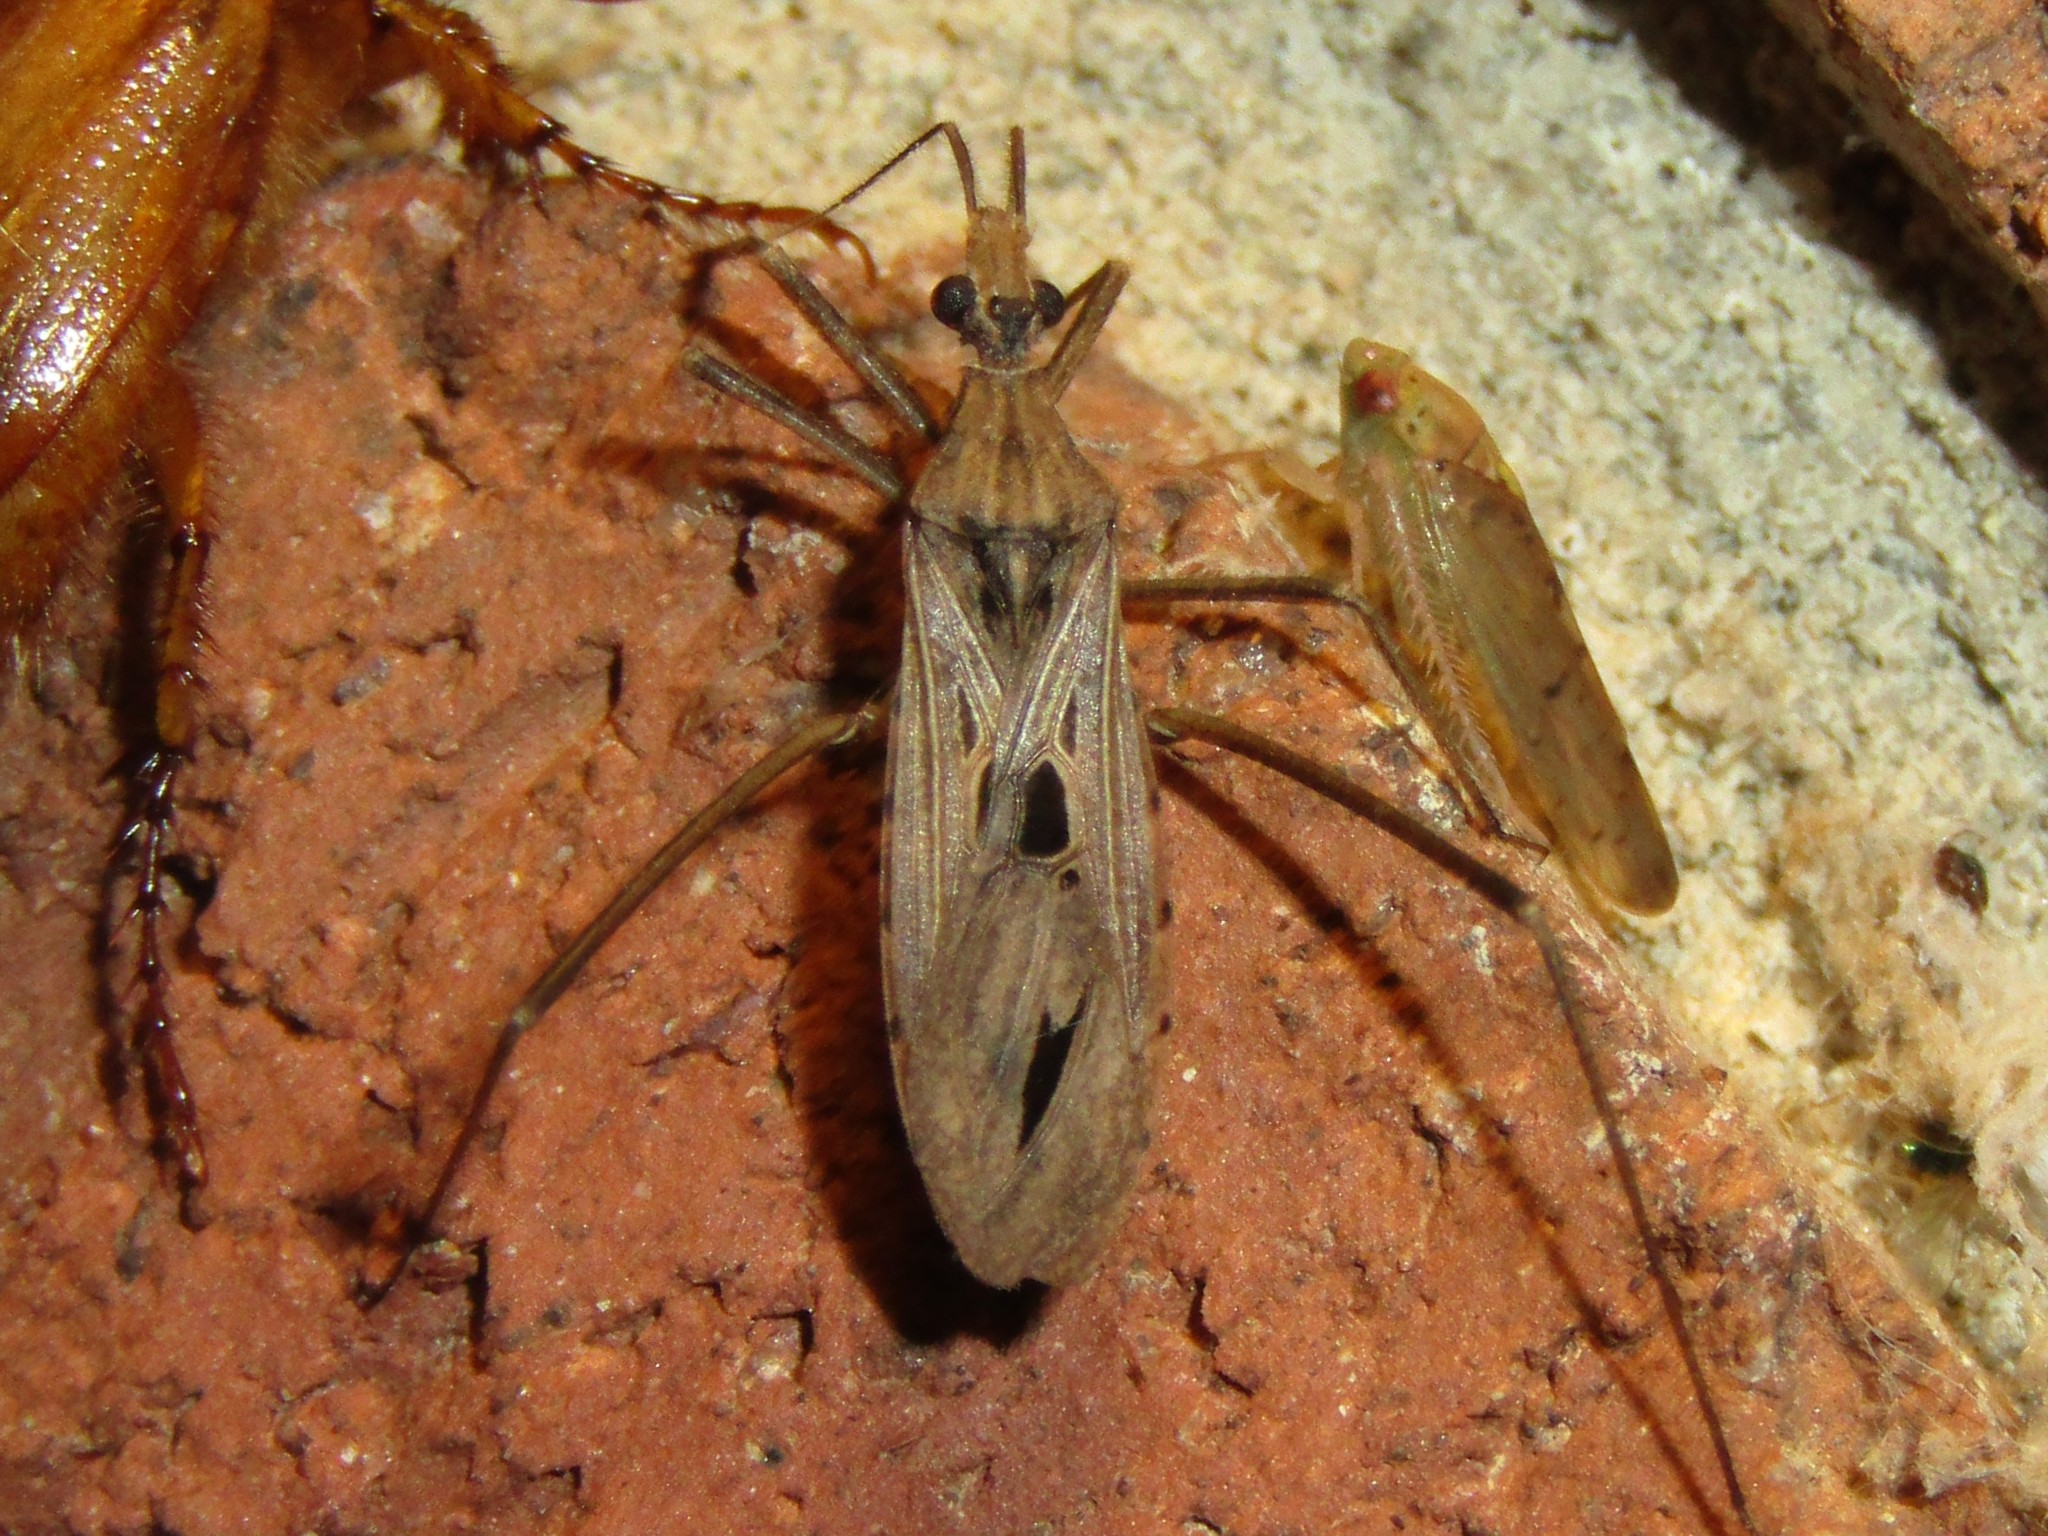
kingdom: Animalia
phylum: Arthropoda
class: Insecta
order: Hemiptera
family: Reduviidae
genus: Narvesus
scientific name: Narvesus carolinensis
